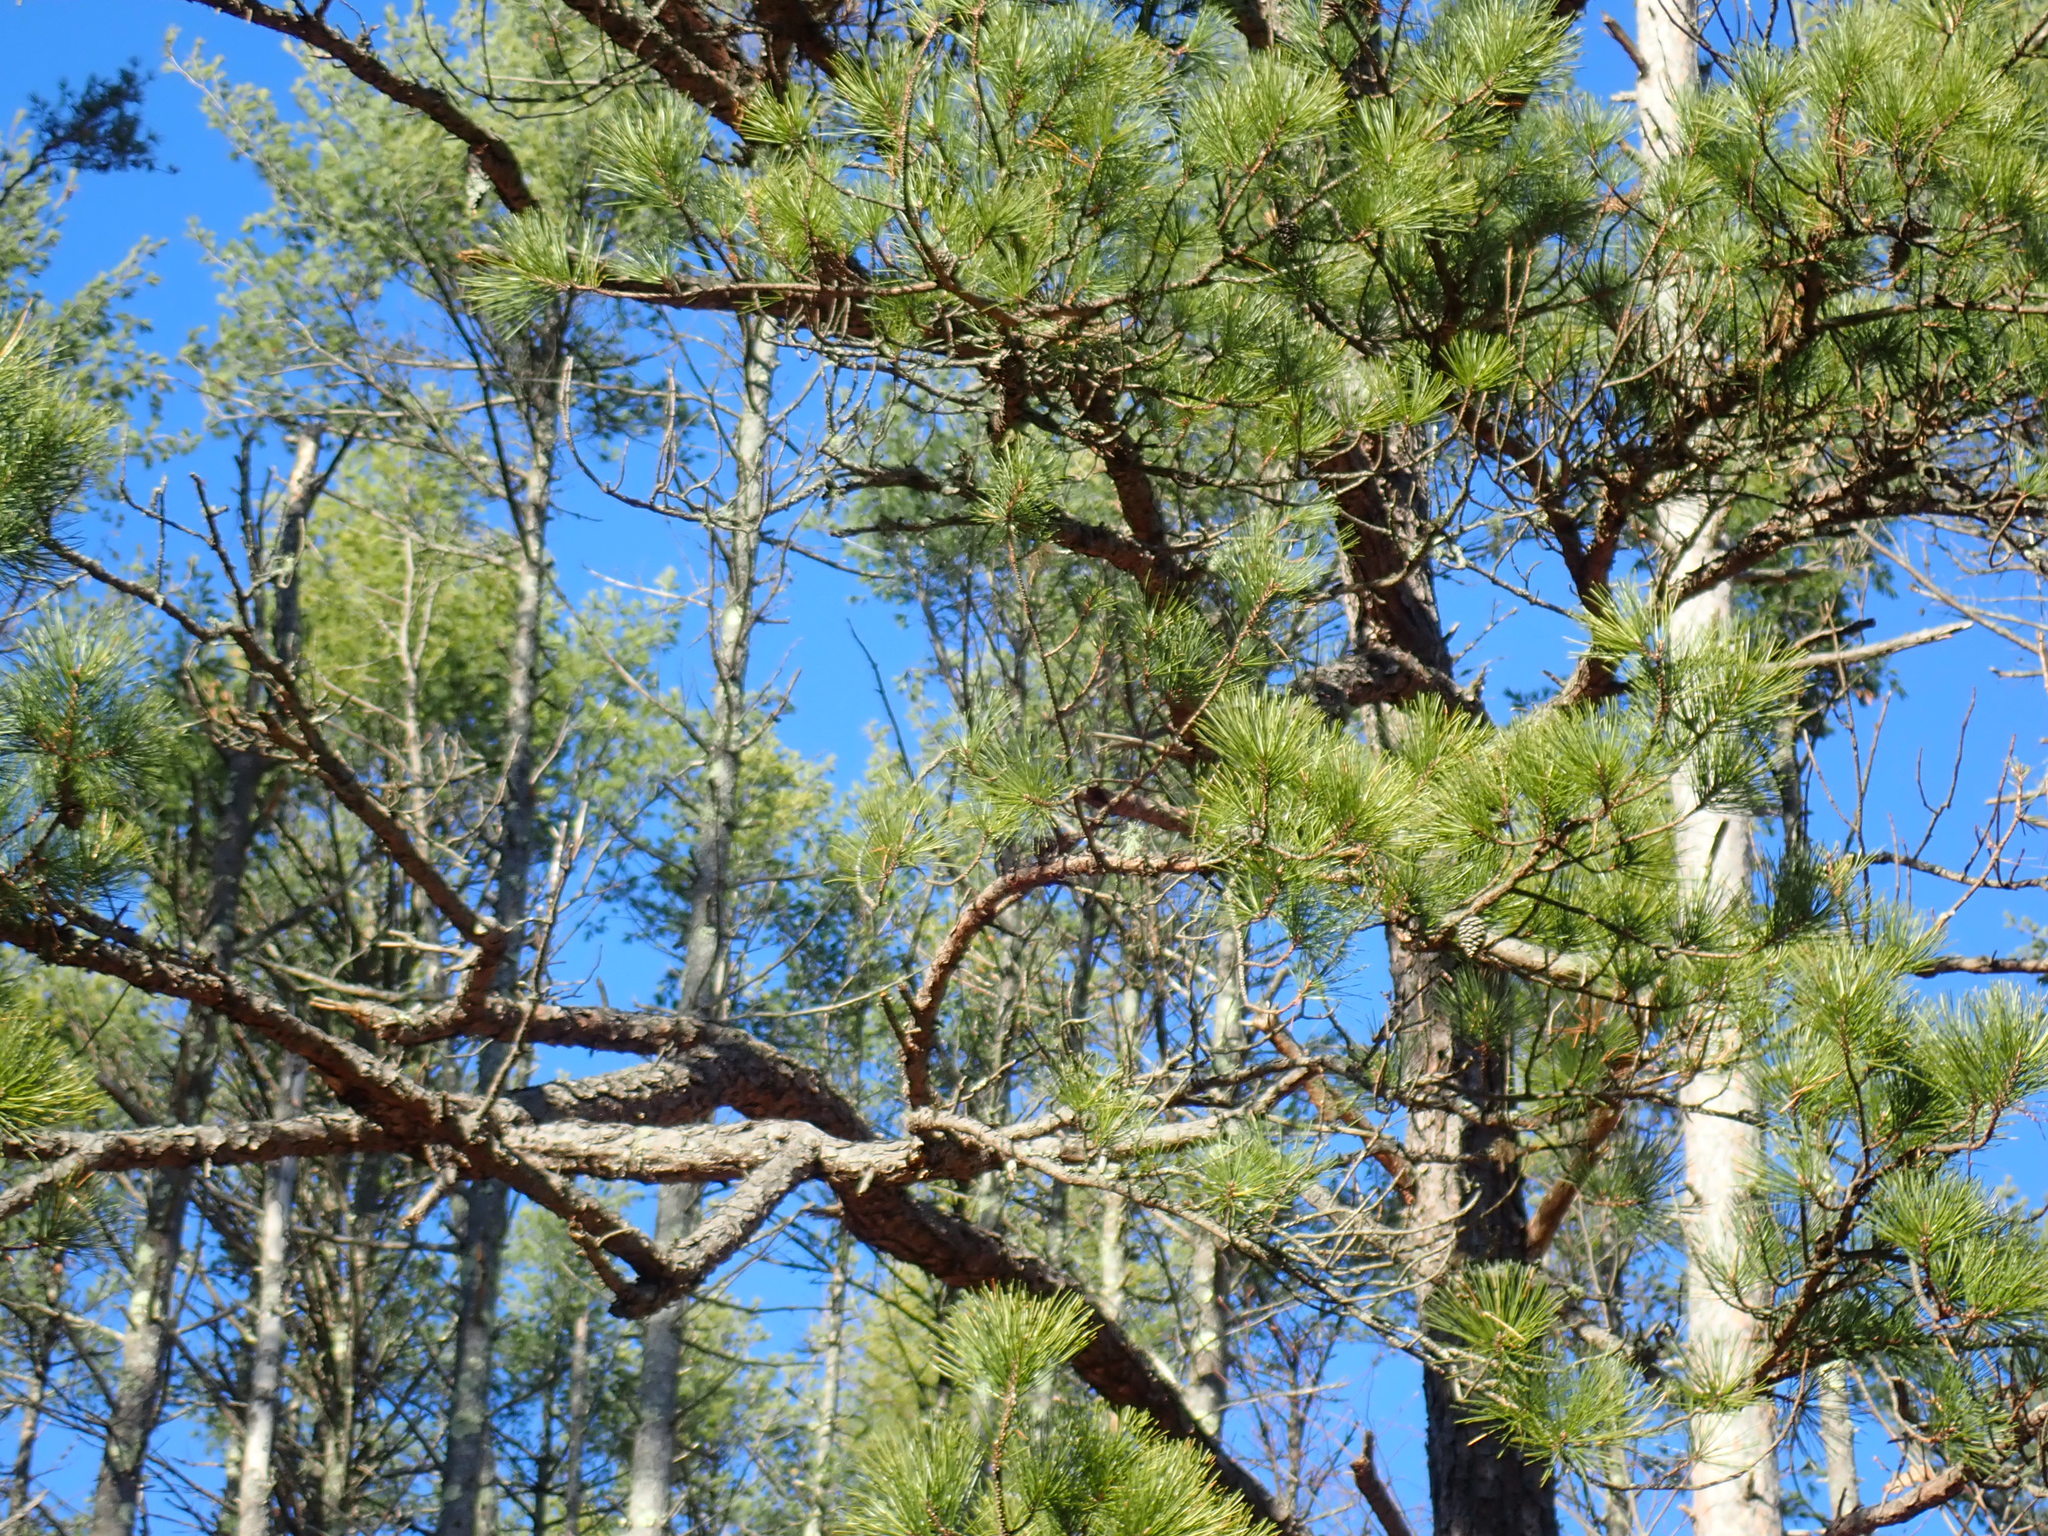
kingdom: Plantae
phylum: Tracheophyta
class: Pinopsida
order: Pinales
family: Pinaceae
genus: Pinus
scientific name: Pinus rigida
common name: Pitch pine
